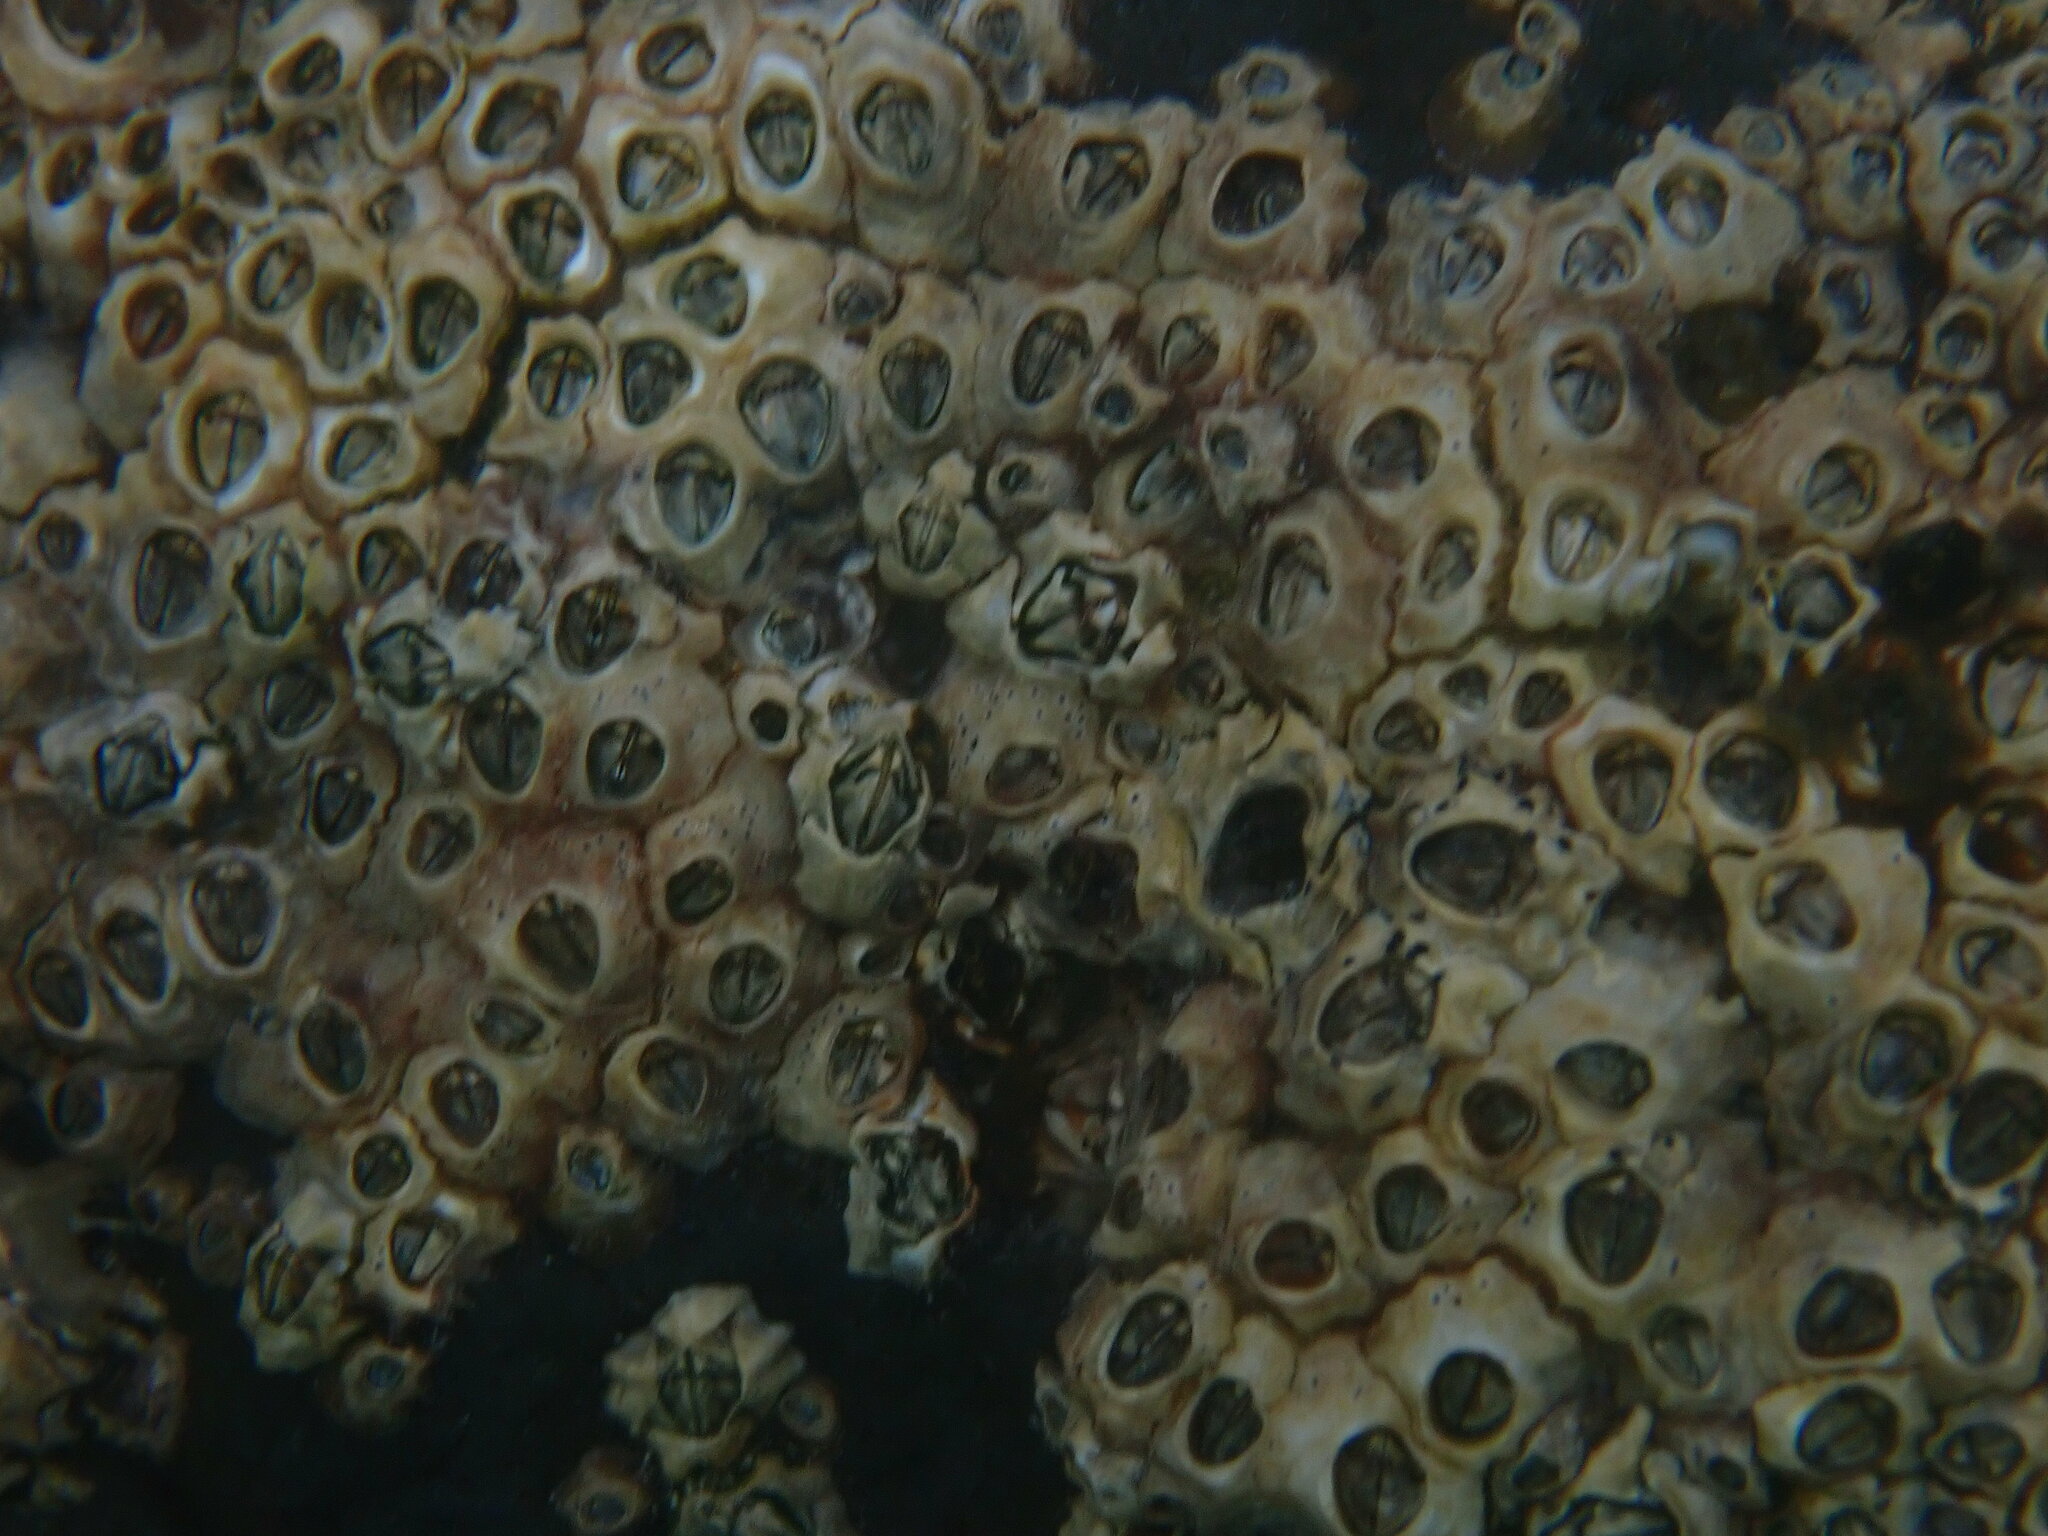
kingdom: Animalia
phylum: Arthropoda
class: Maxillopoda
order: Sessilia
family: Chthamalidae
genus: Chamaesipho
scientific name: Chamaesipho columna
